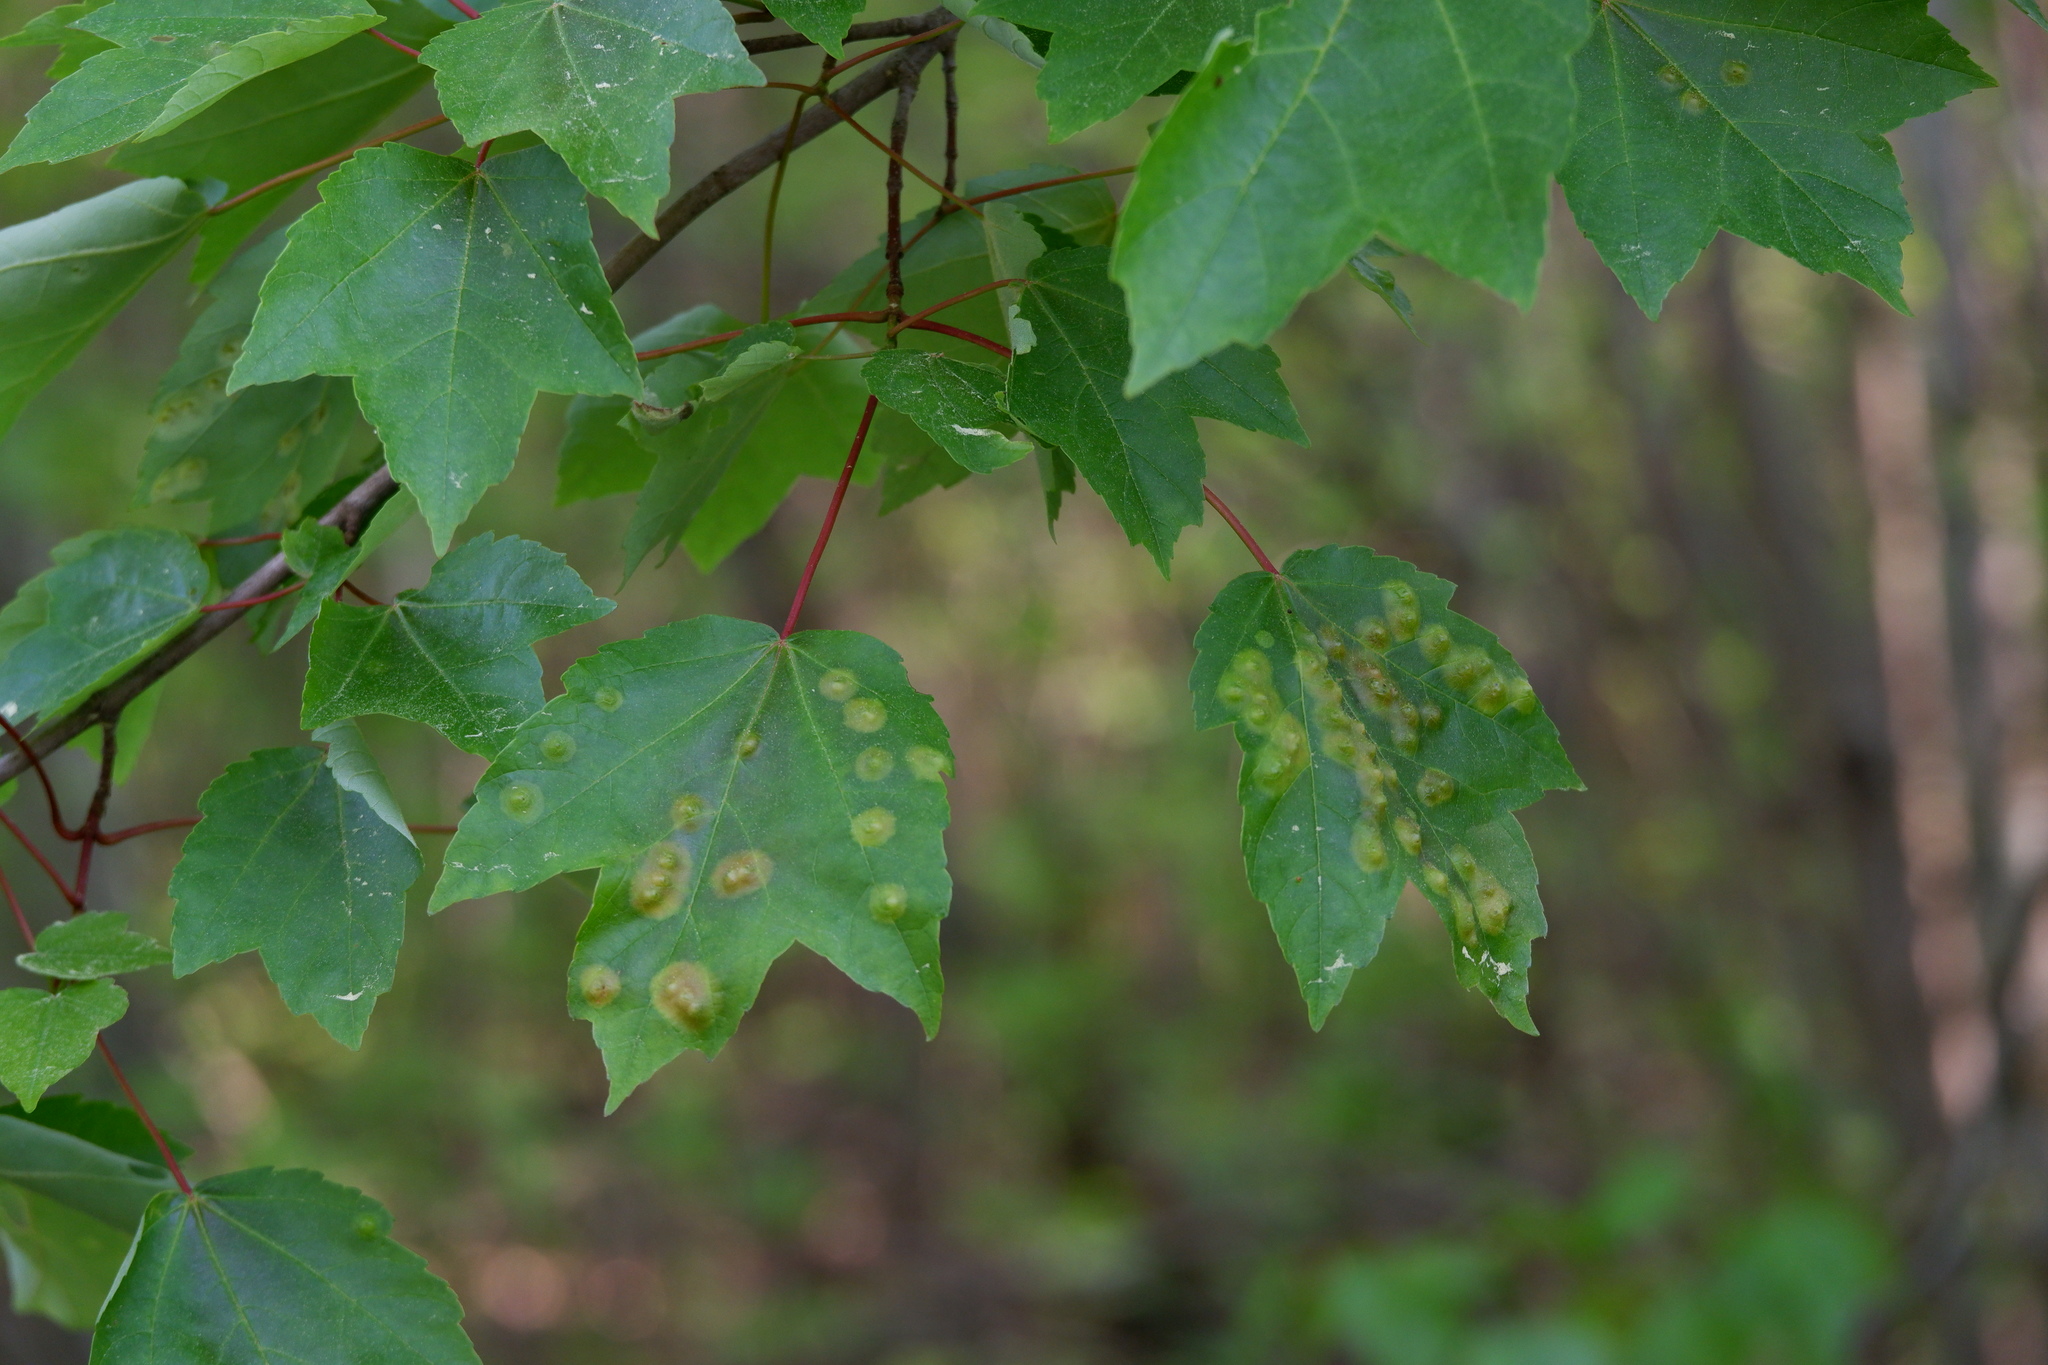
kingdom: Animalia
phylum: Arthropoda
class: Insecta
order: Diptera
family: Cecidomyiidae
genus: Acericecis
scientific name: Acericecis ocellaris
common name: Ocellate gall midge
